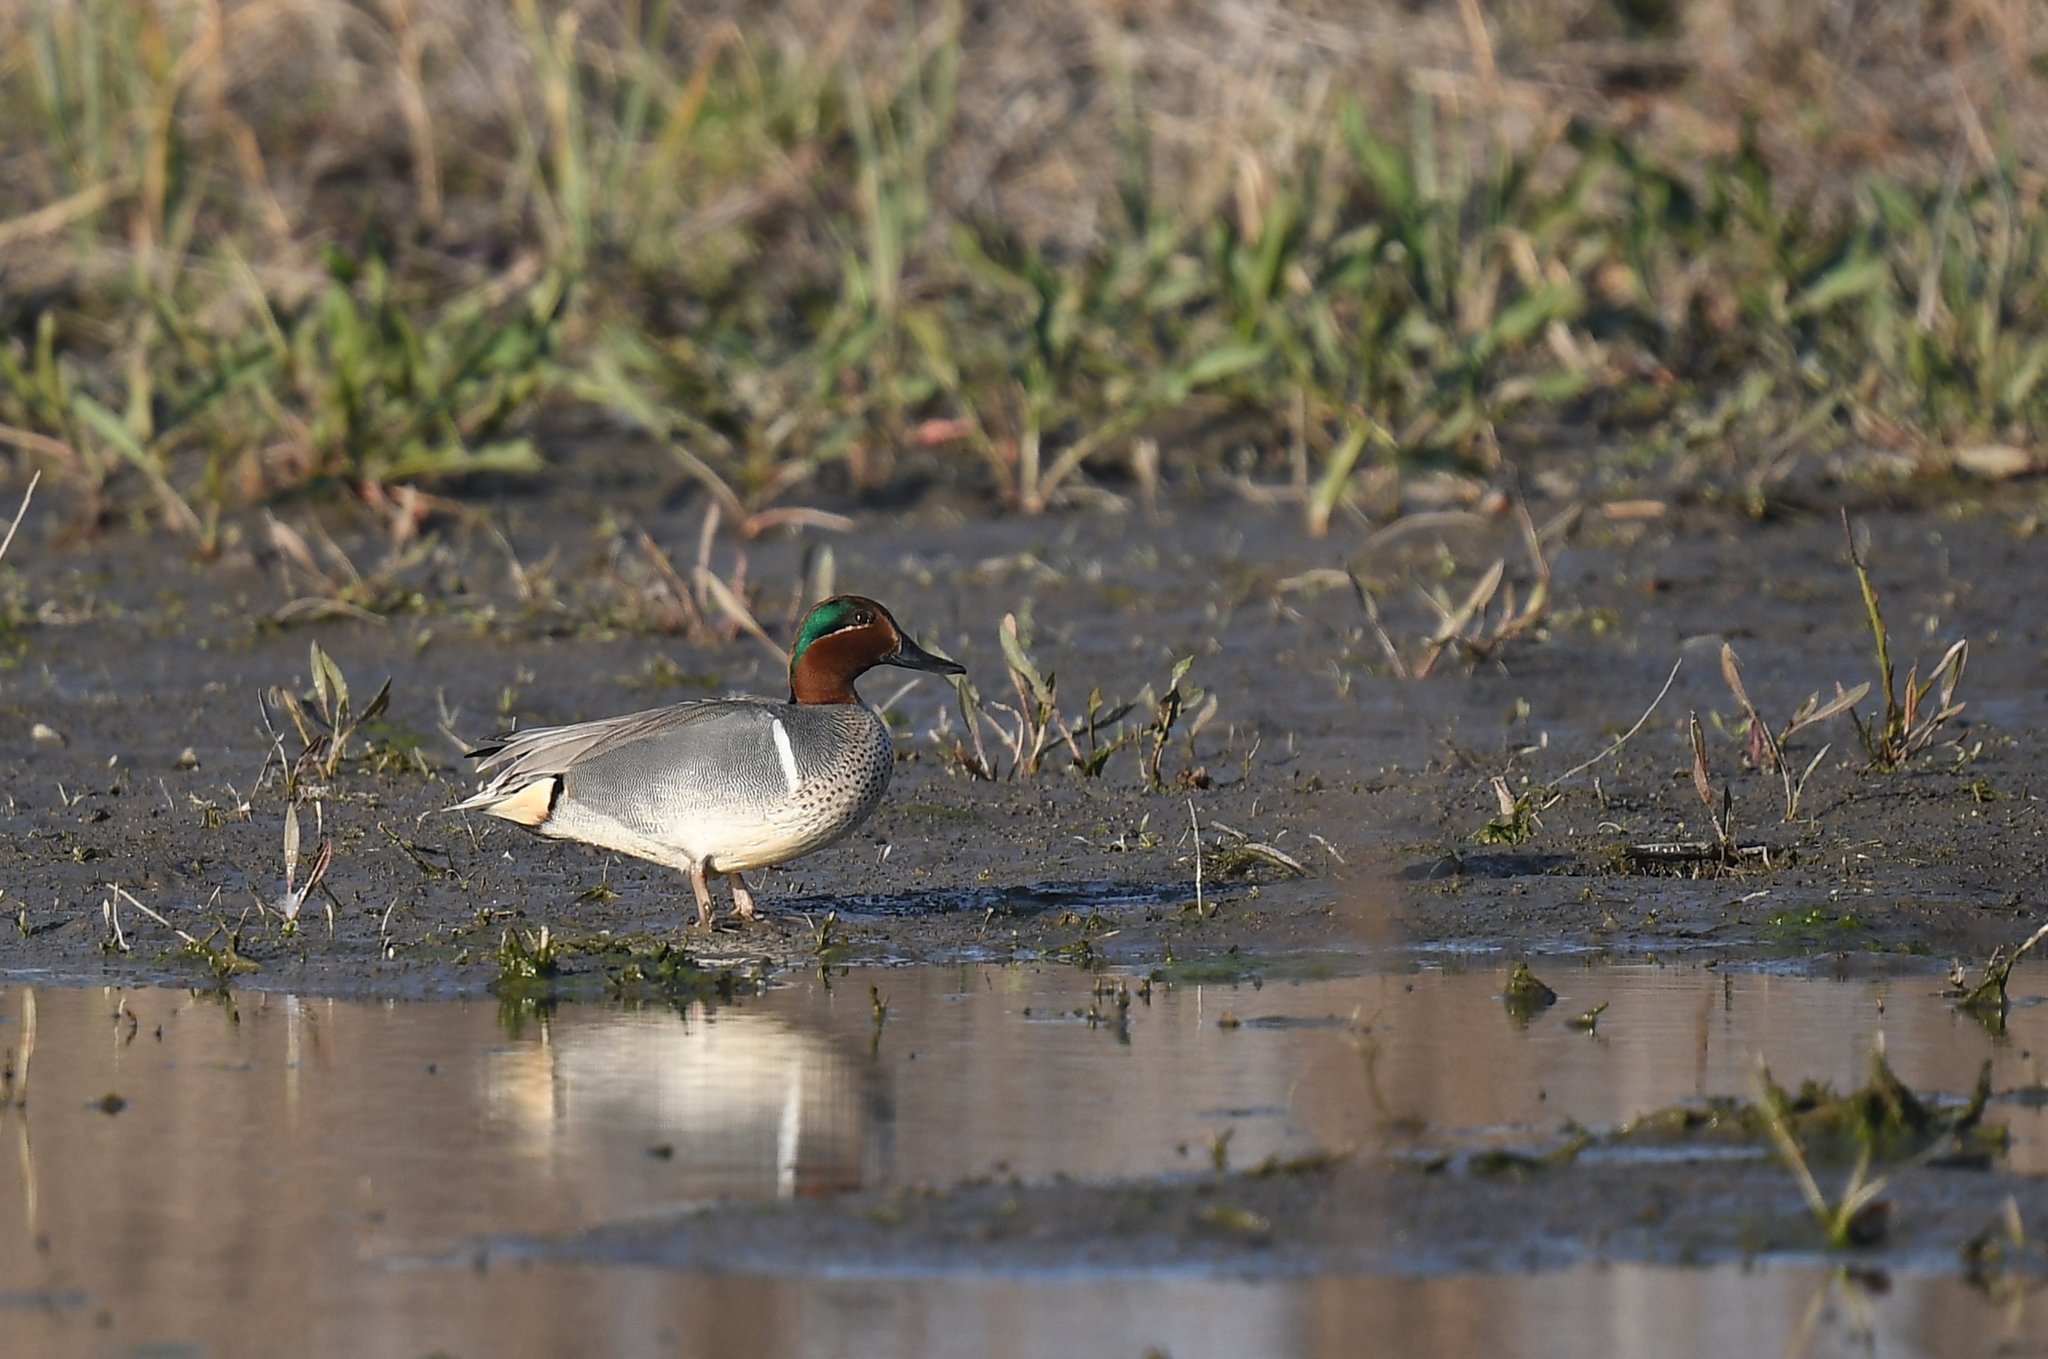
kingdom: Animalia
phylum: Chordata
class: Aves
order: Anseriformes
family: Anatidae
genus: Anas
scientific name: Anas crecca
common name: Eurasian teal
